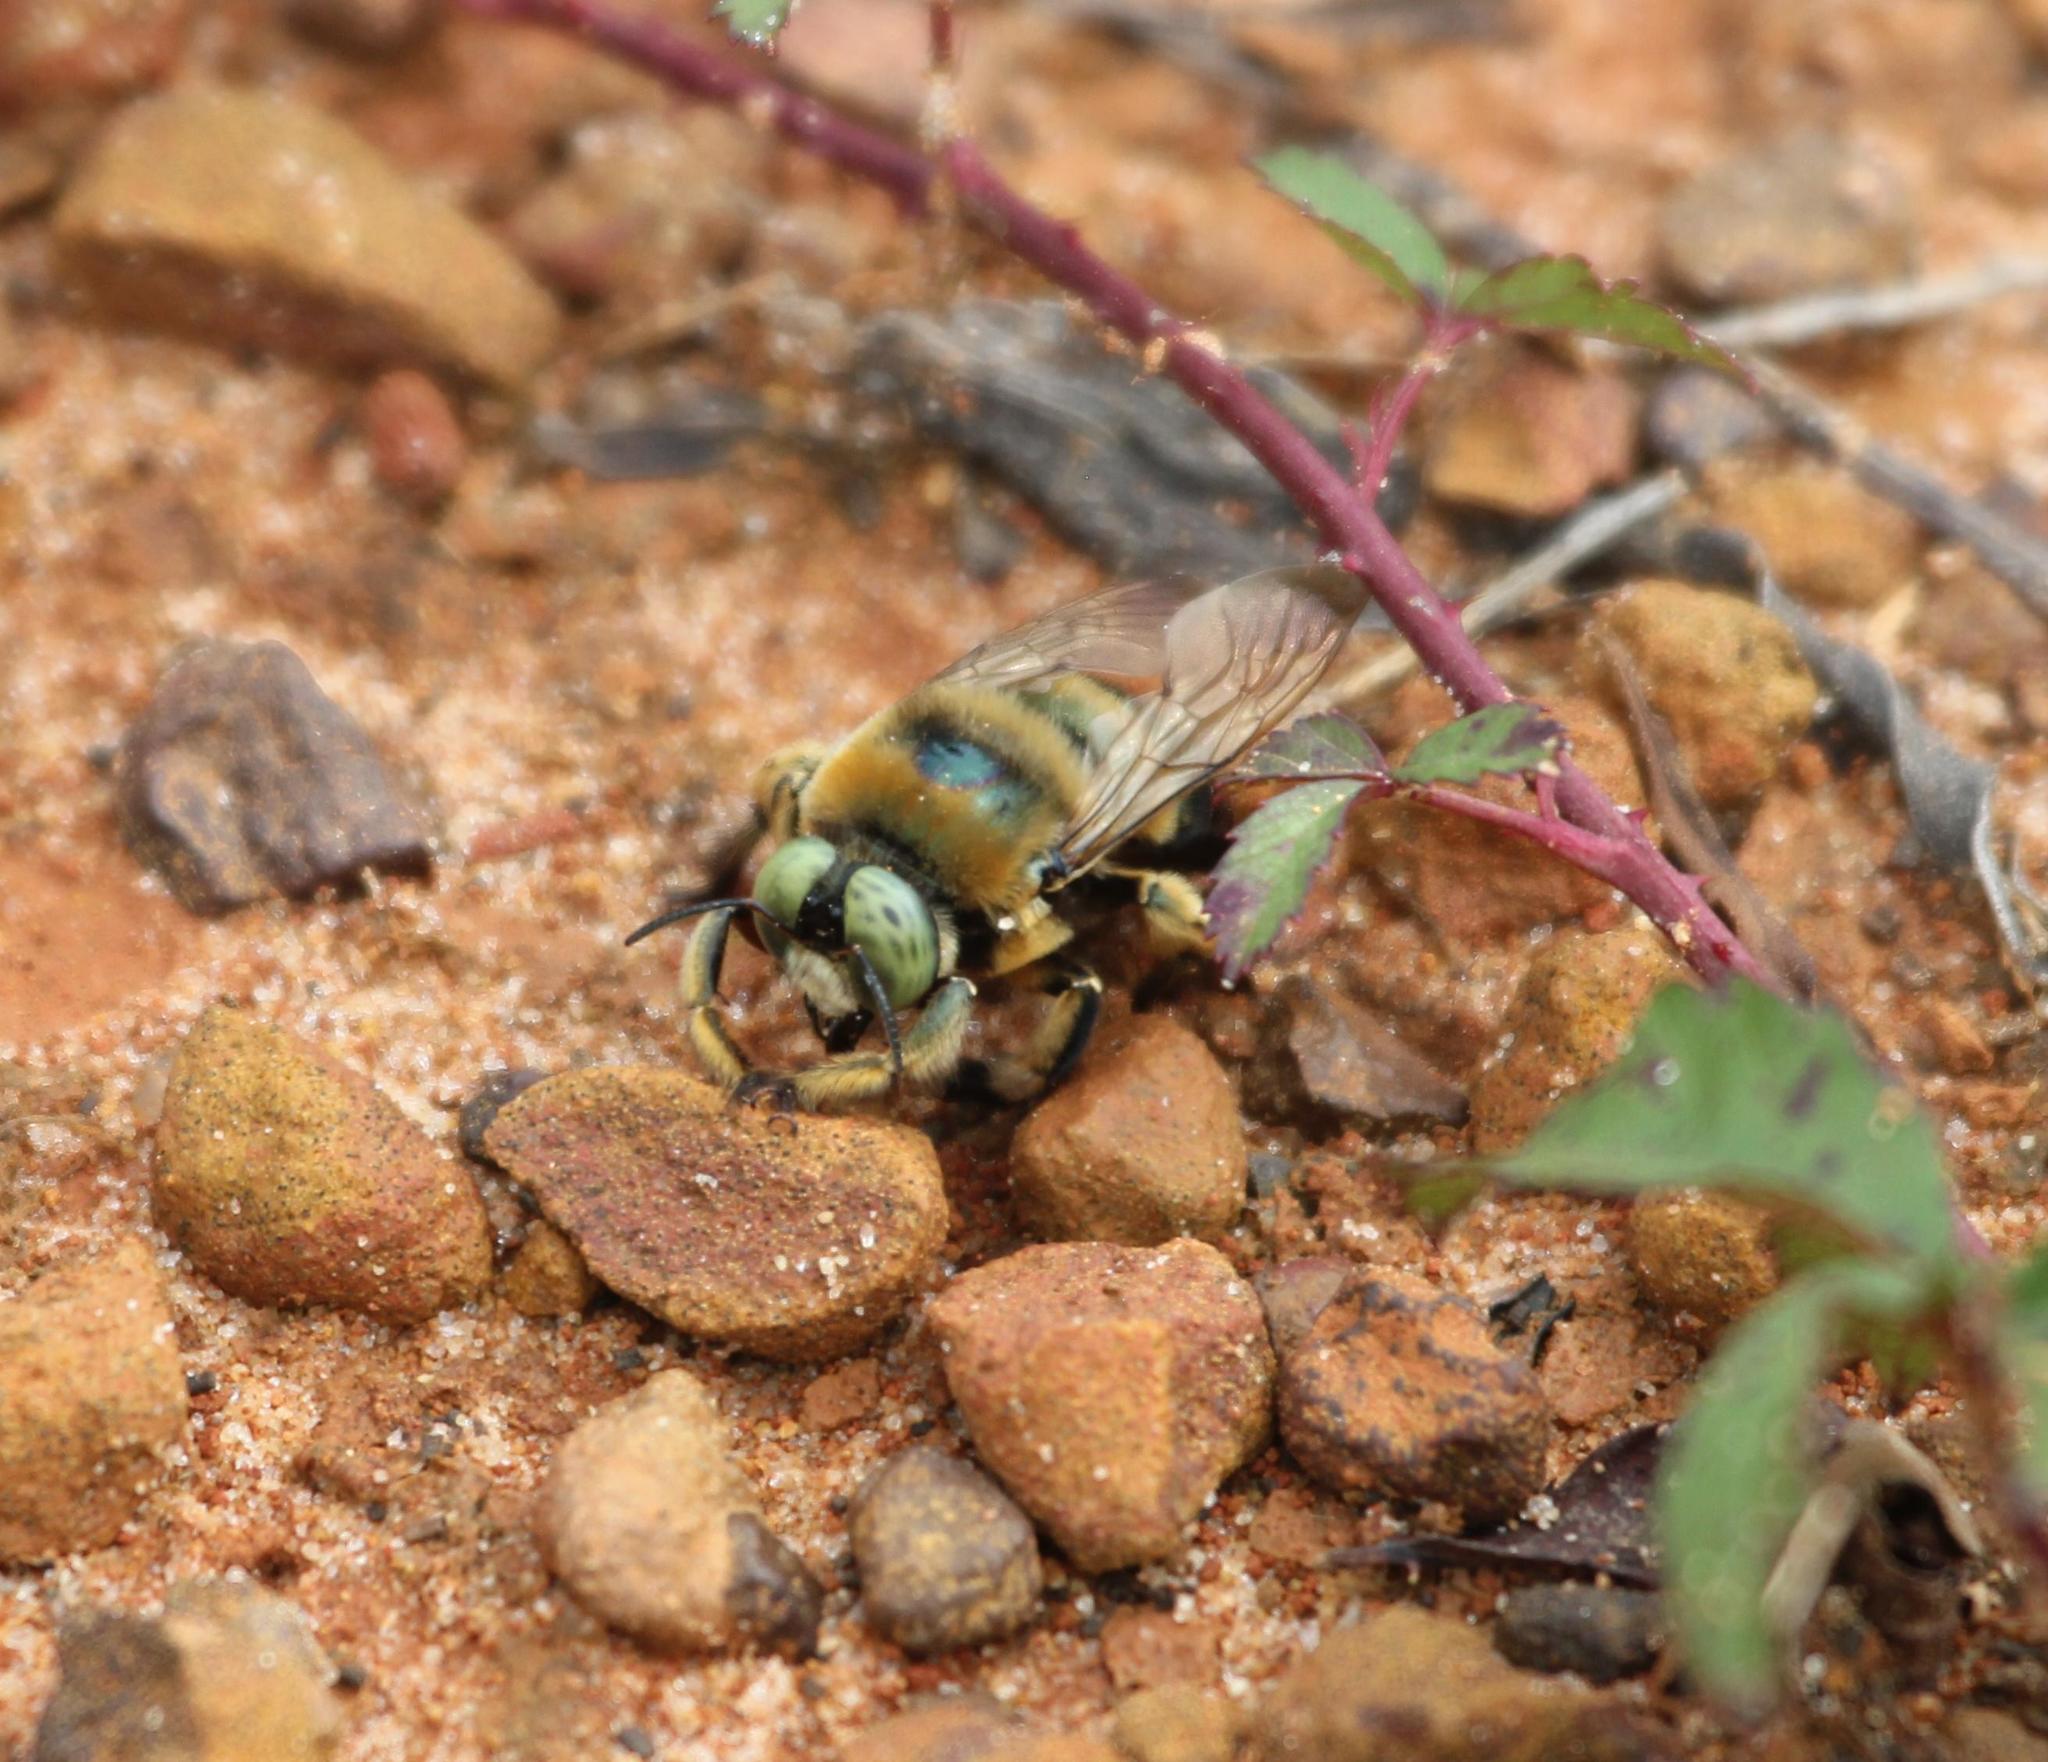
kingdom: Animalia
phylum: Arthropoda
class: Insecta
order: Hymenoptera
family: Apidae
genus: Xylocopa
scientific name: Xylocopa micans
